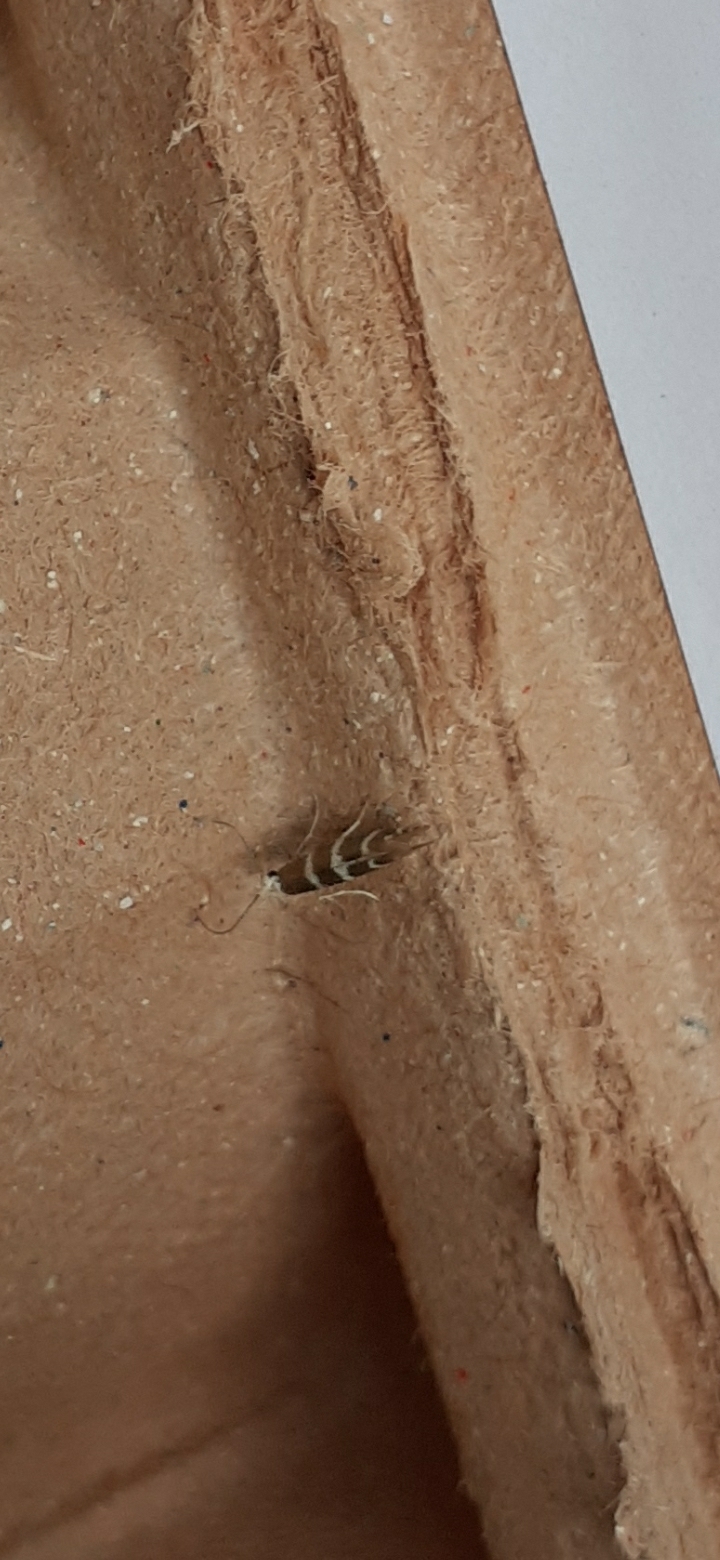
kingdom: Animalia
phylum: Arthropoda
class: Insecta
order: Lepidoptera
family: Gracillariidae
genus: Cameraria
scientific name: Cameraria ohridella
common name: Horse-chestnut leaf-miner
